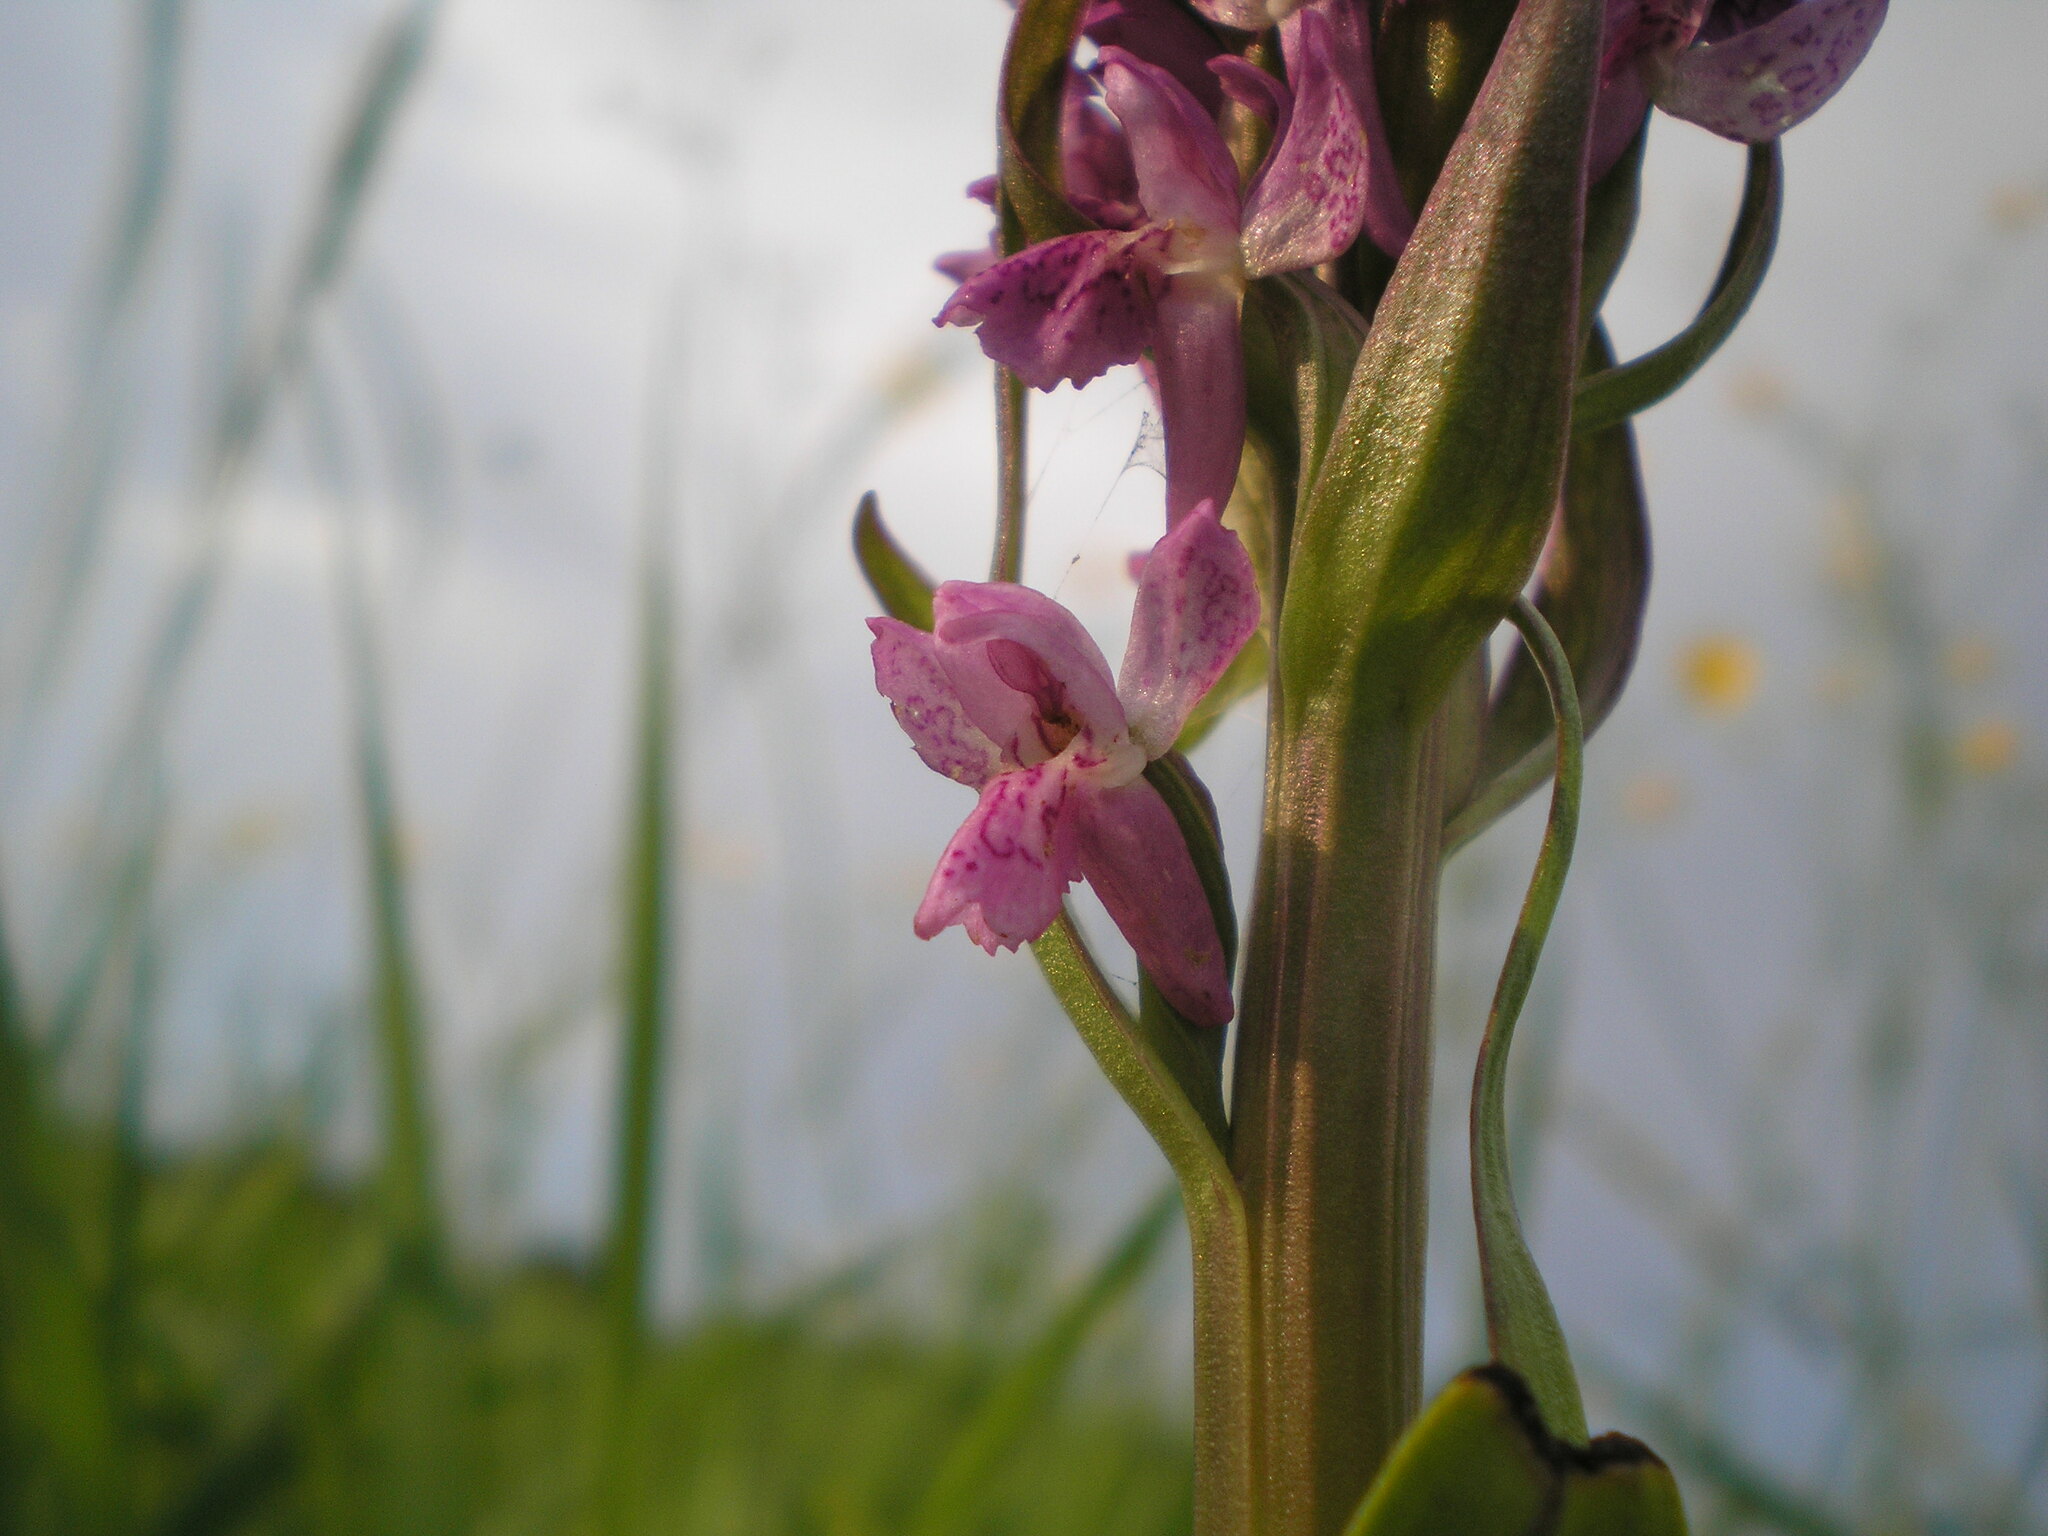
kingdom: Plantae
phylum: Tracheophyta
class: Liliopsida
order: Asparagales
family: Orchidaceae
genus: Dactylorhiza
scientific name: Dactylorhiza incarnata
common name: Early marsh-orchid
